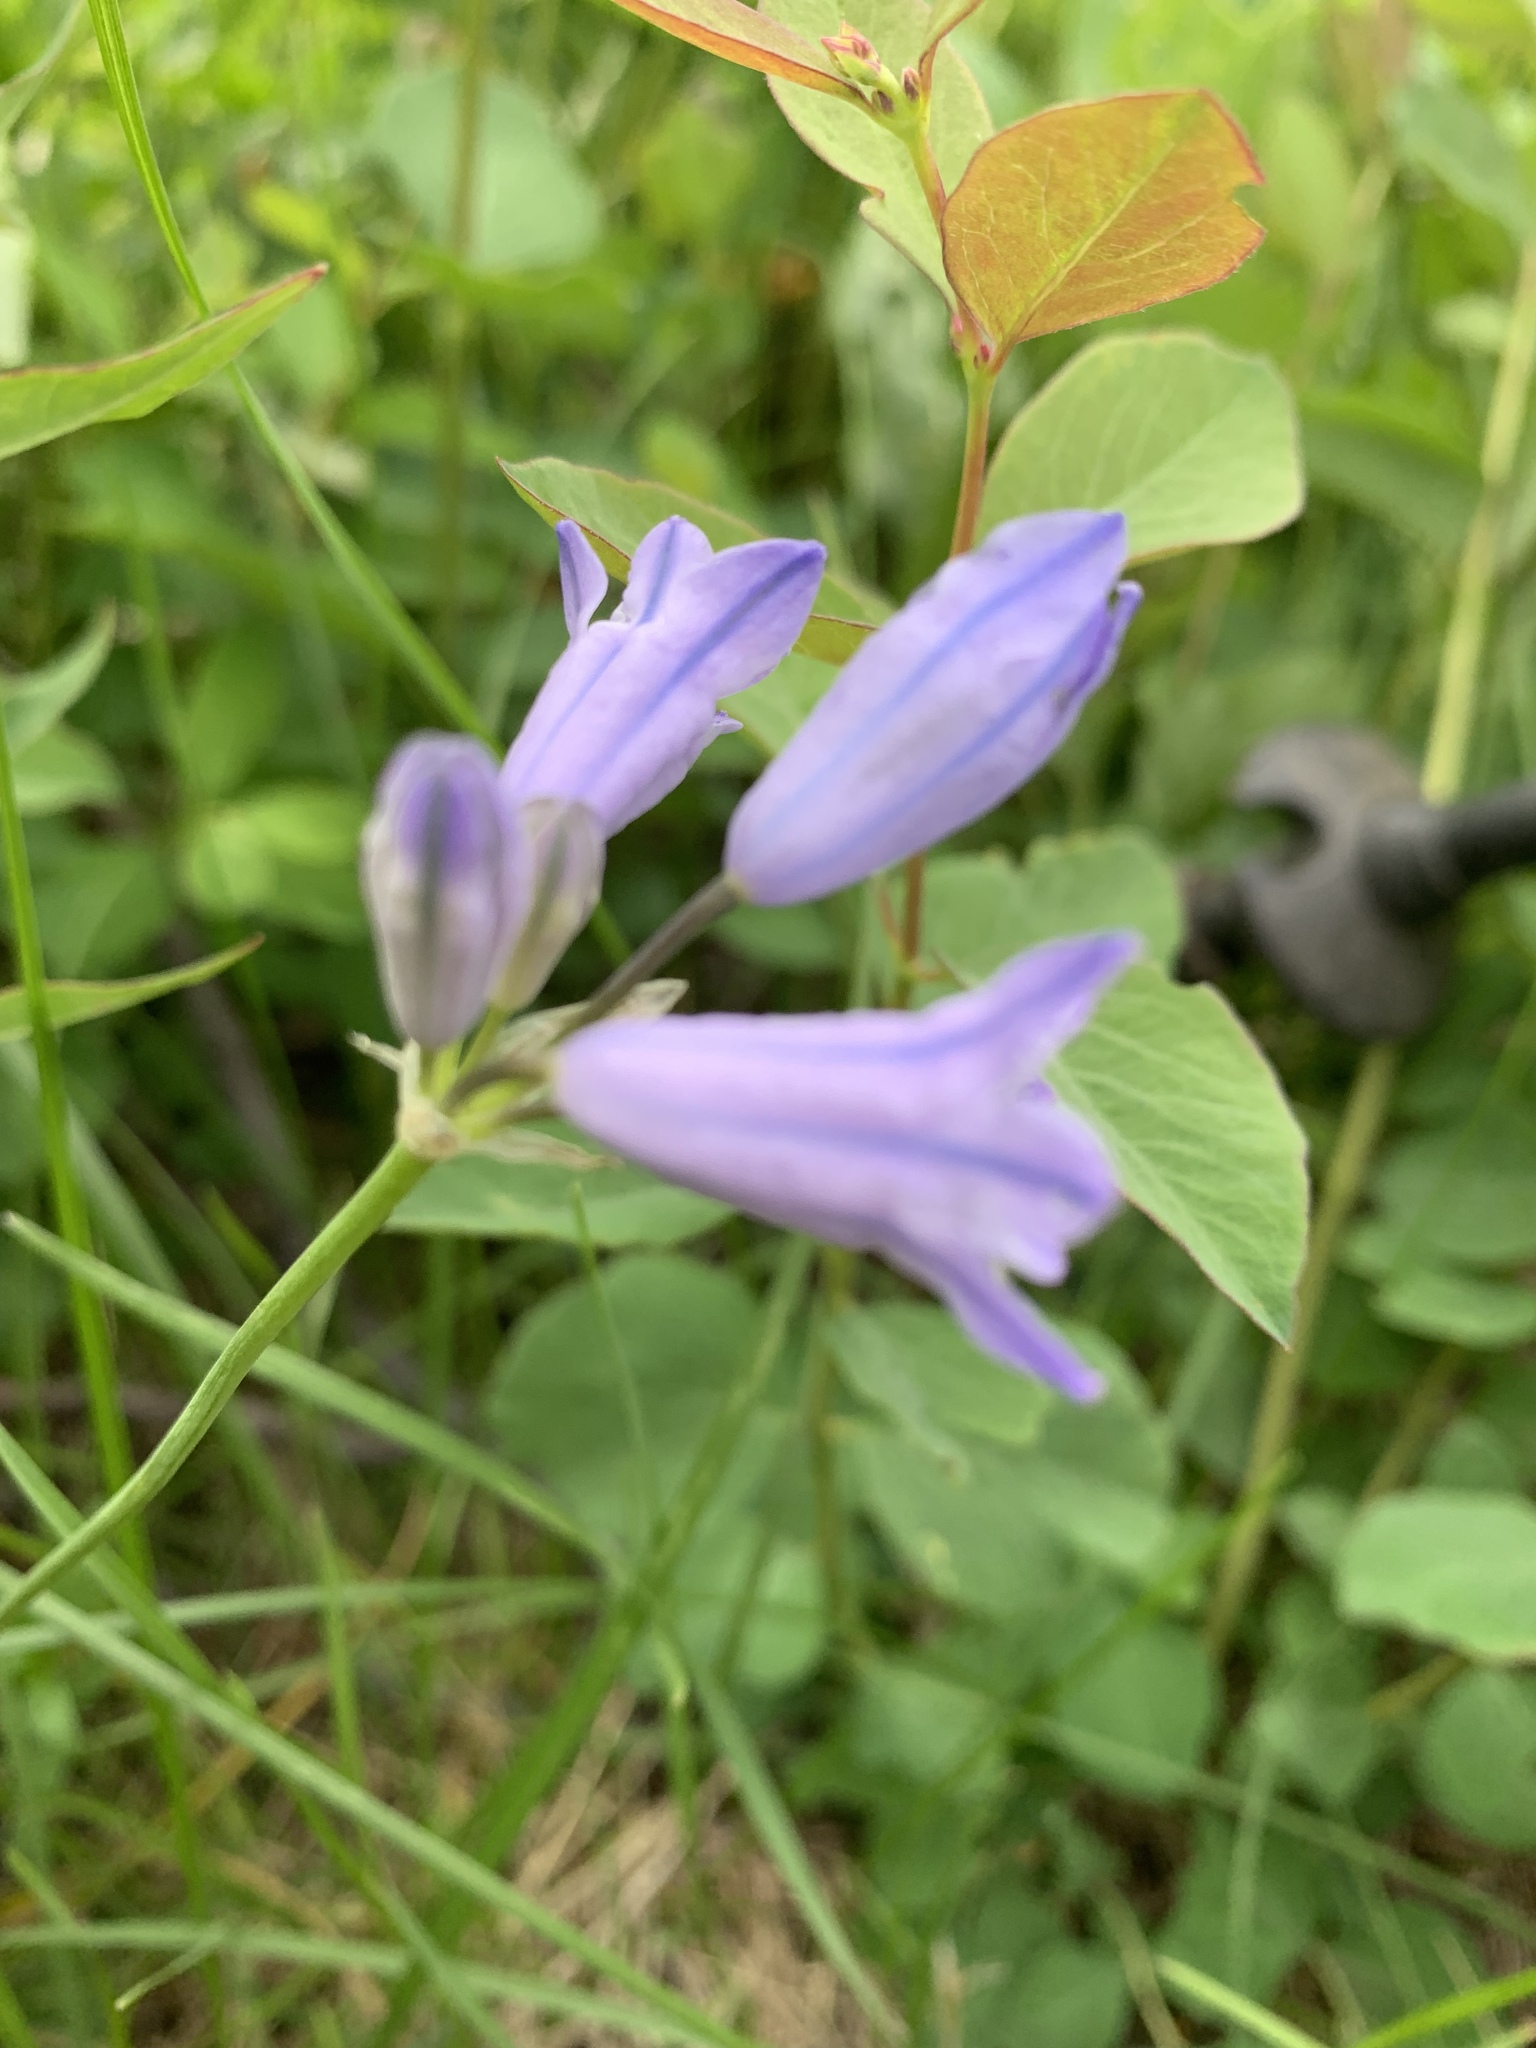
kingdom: Plantae
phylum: Tracheophyta
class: Liliopsida
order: Asparagales
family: Asparagaceae
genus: Triteleia
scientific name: Triteleia grandiflora
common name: Wild hyacinth
